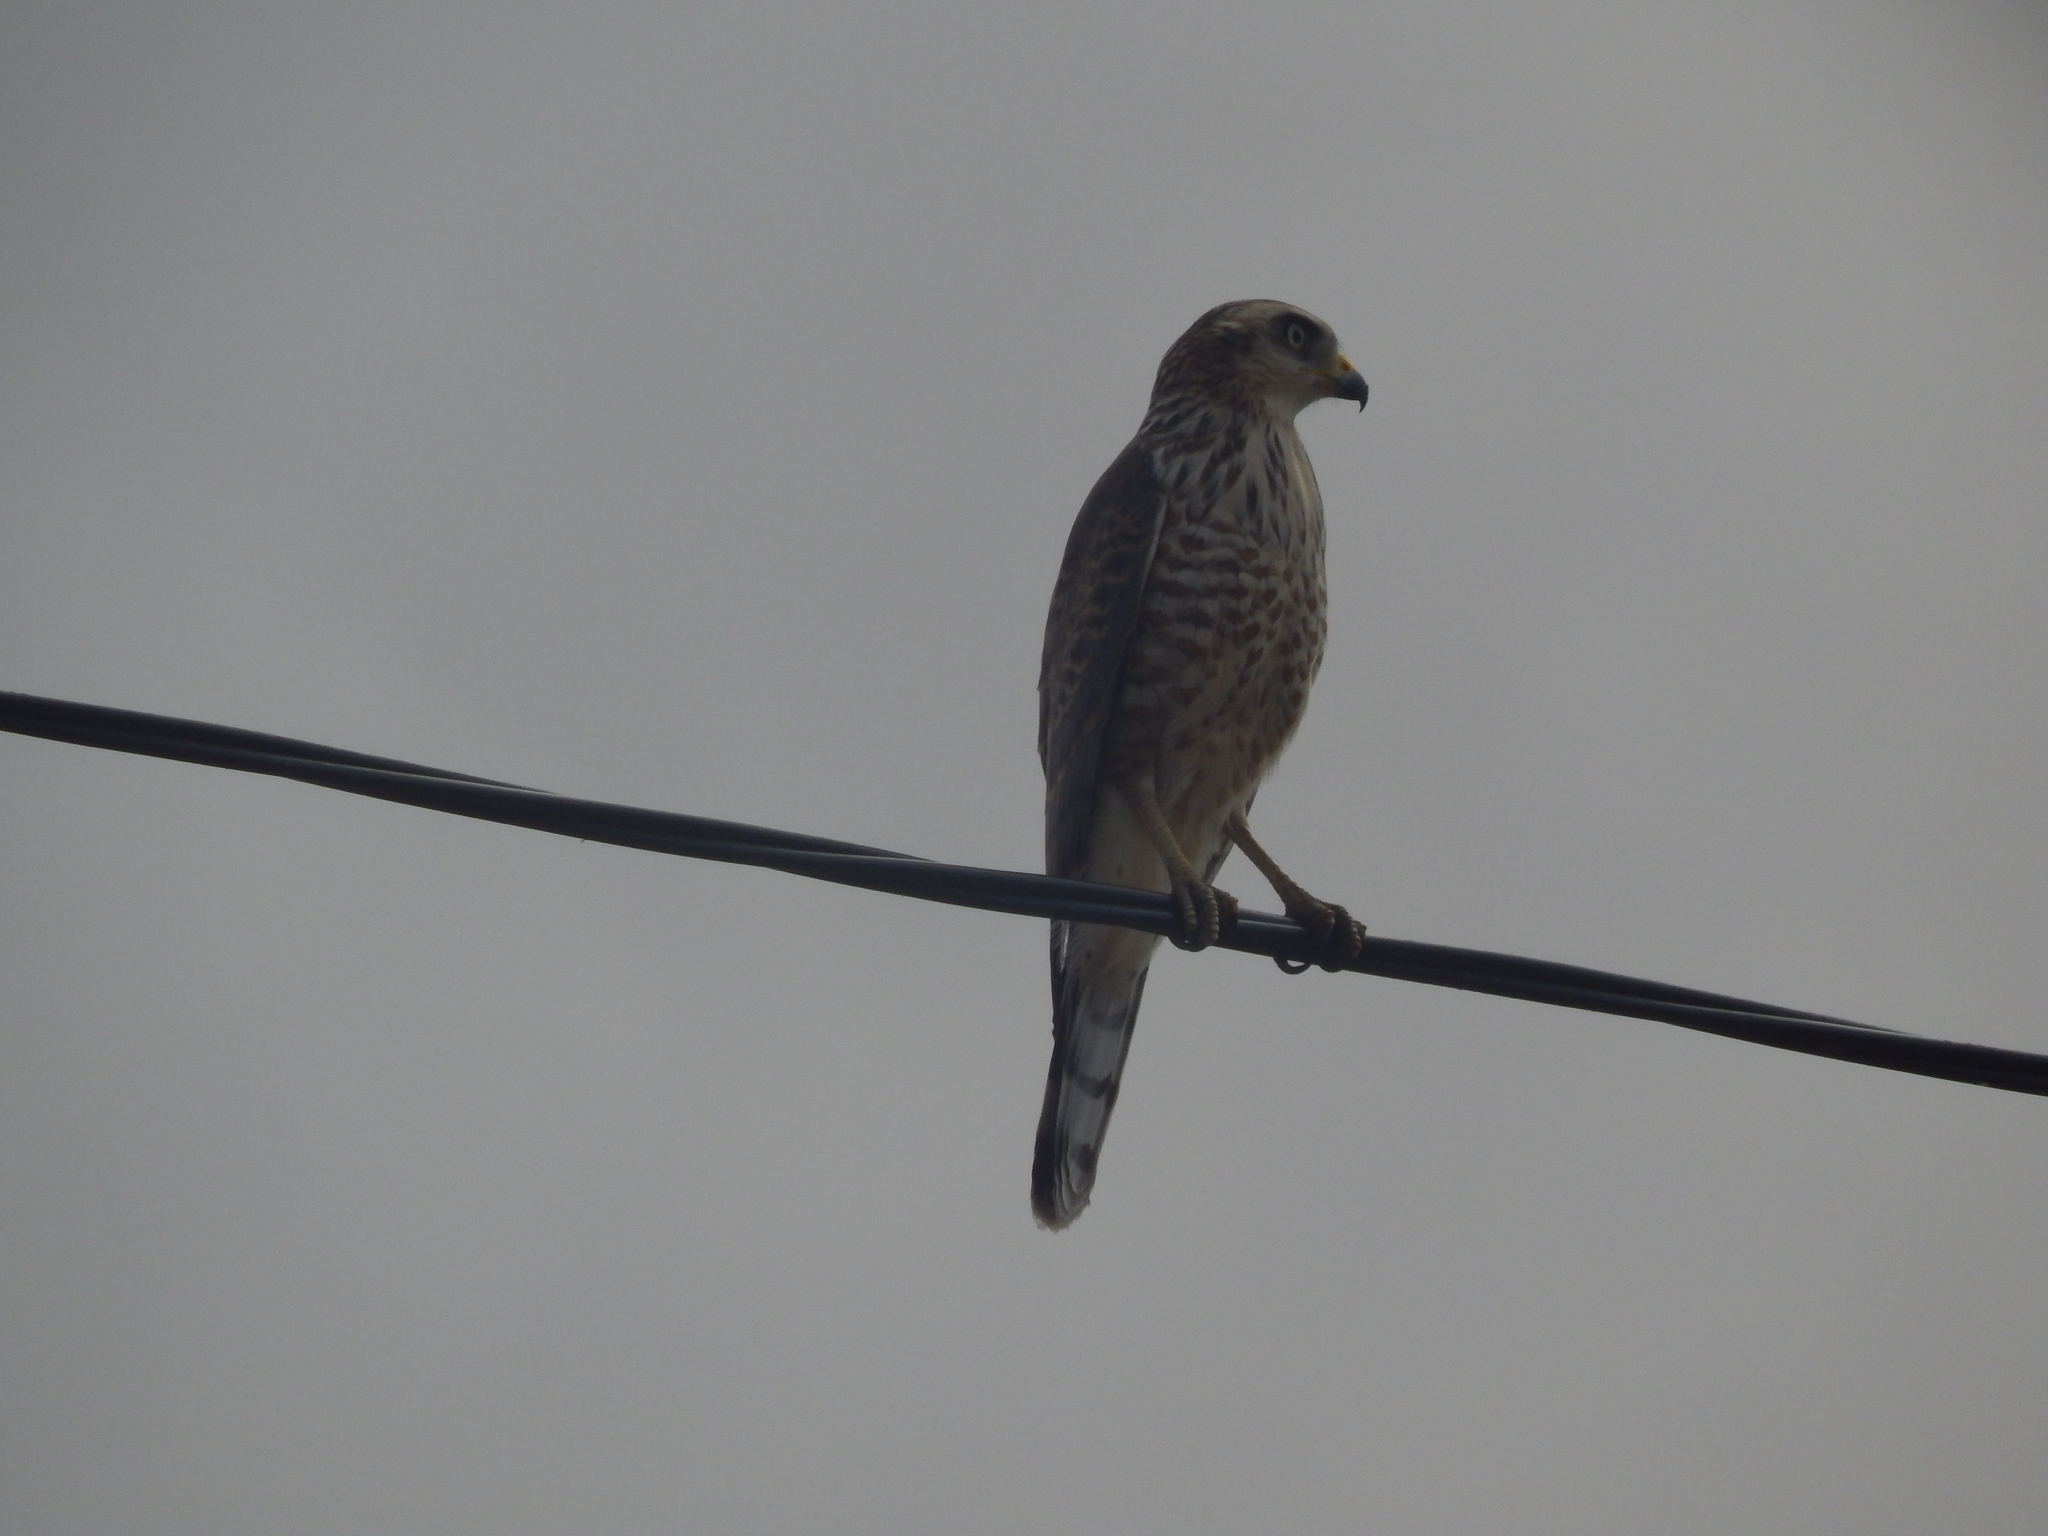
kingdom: Animalia
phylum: Chordata
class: Aves
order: Accipitriformes
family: Accipitridae
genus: Rupornis
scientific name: Rupornis magnirostris
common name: Roadside hawk
